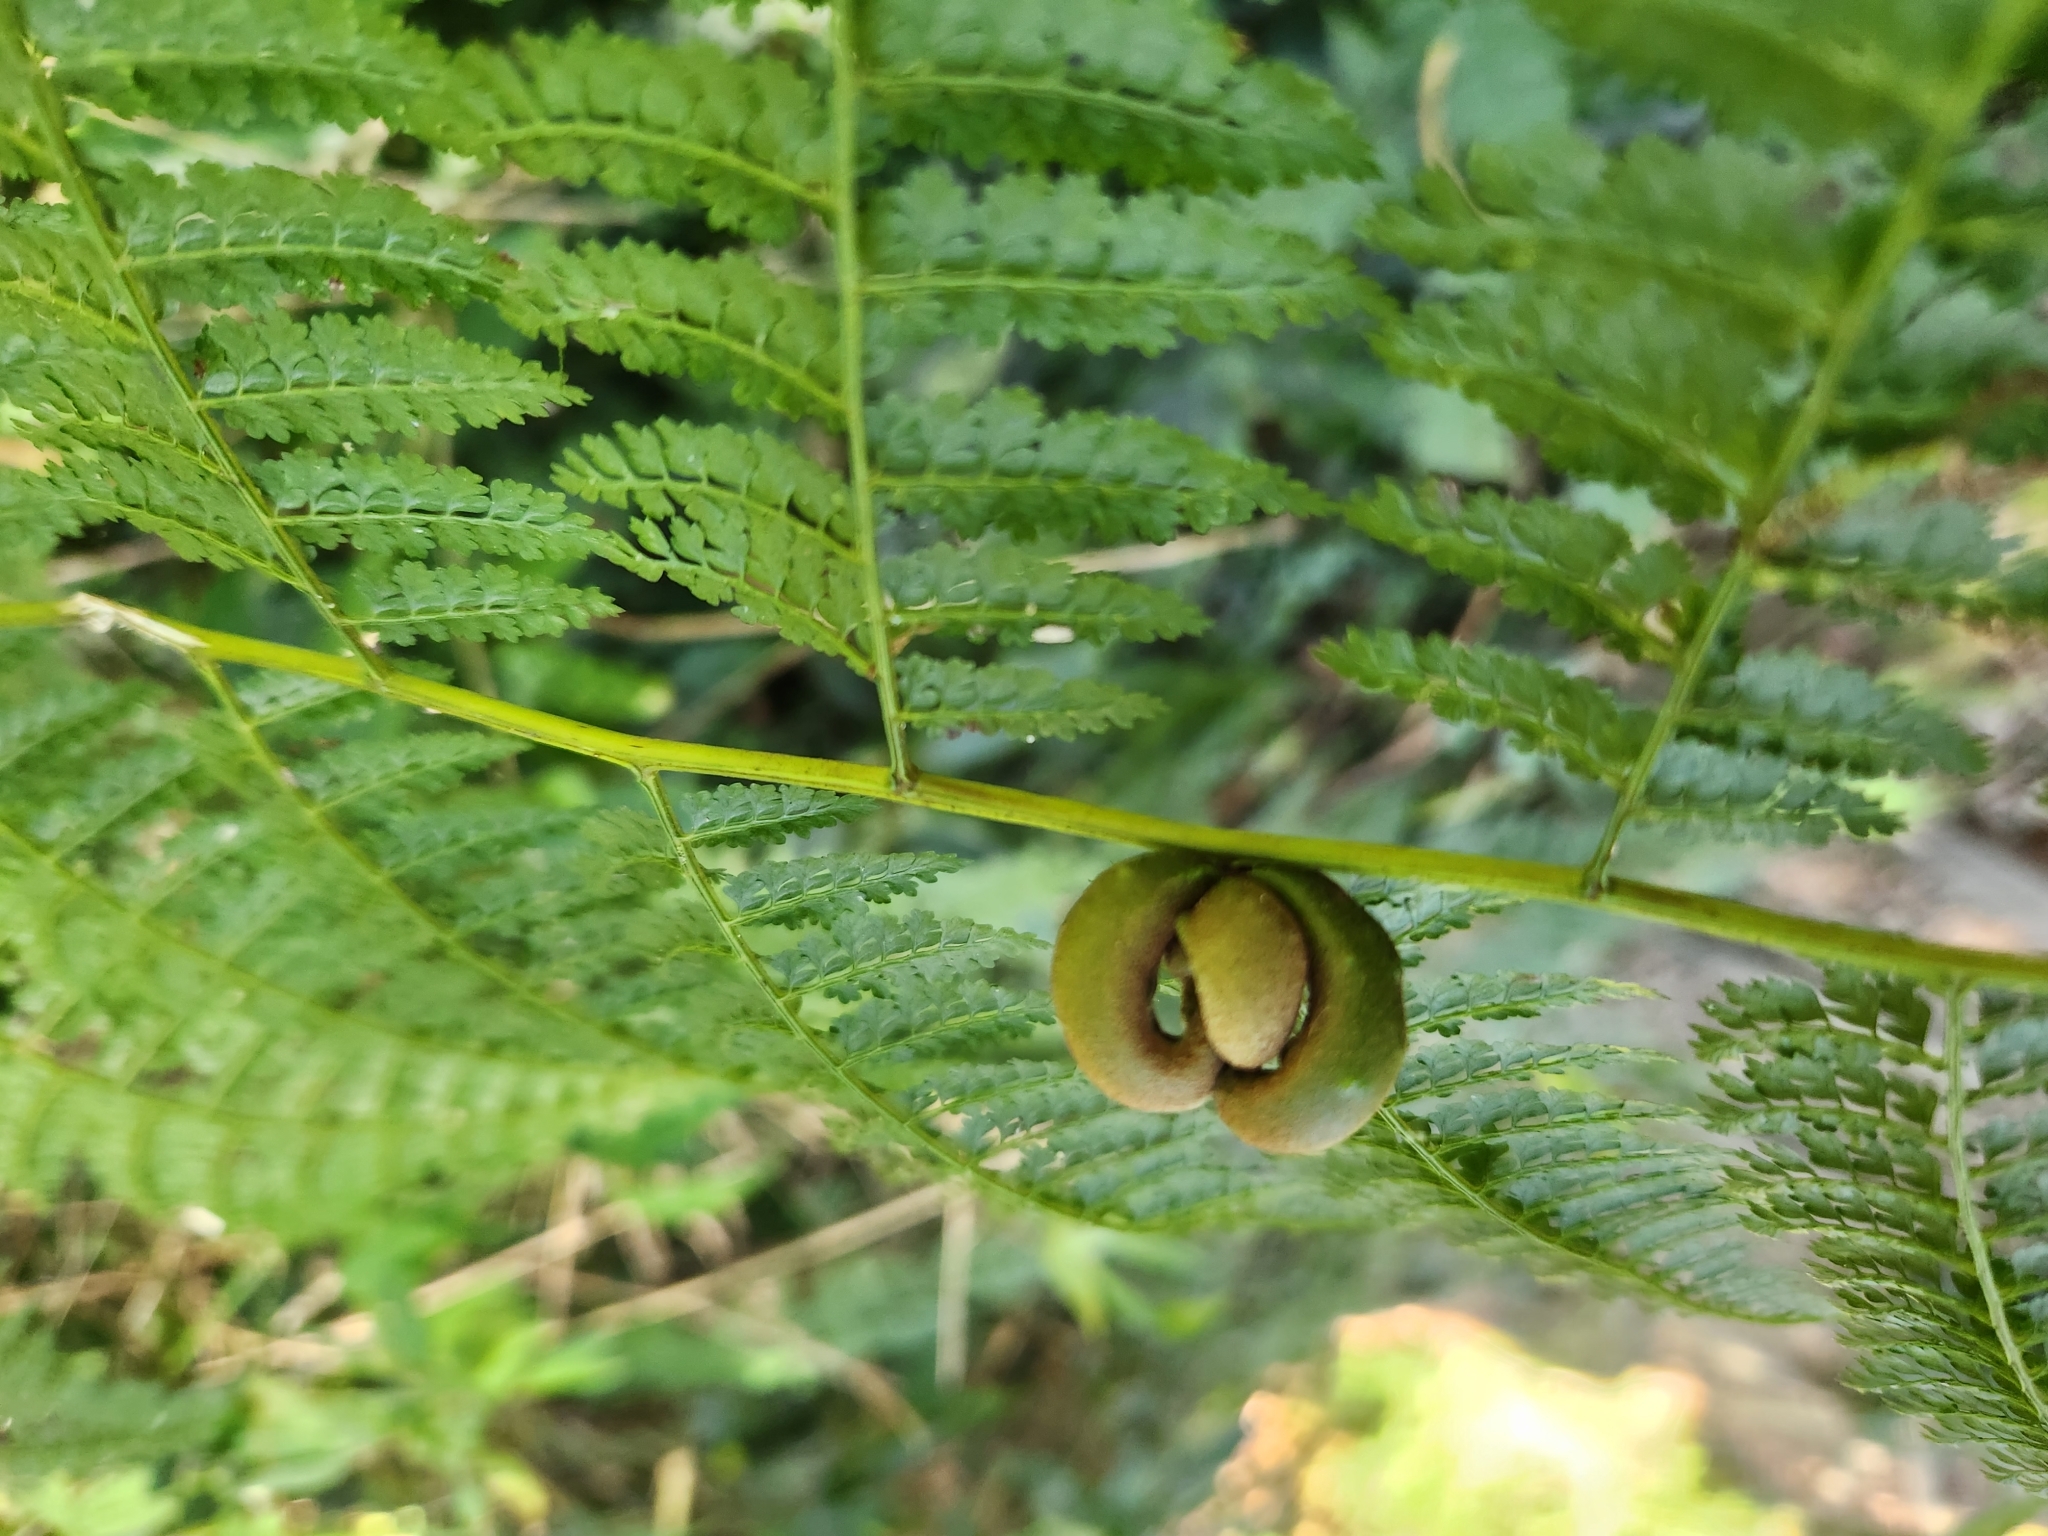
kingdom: Plantae
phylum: Tracheophyta
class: Polypodiopsida
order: Polypodiales
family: Dennstaedtiaceae
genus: Monachosorum
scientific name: Monachosorum henryi
